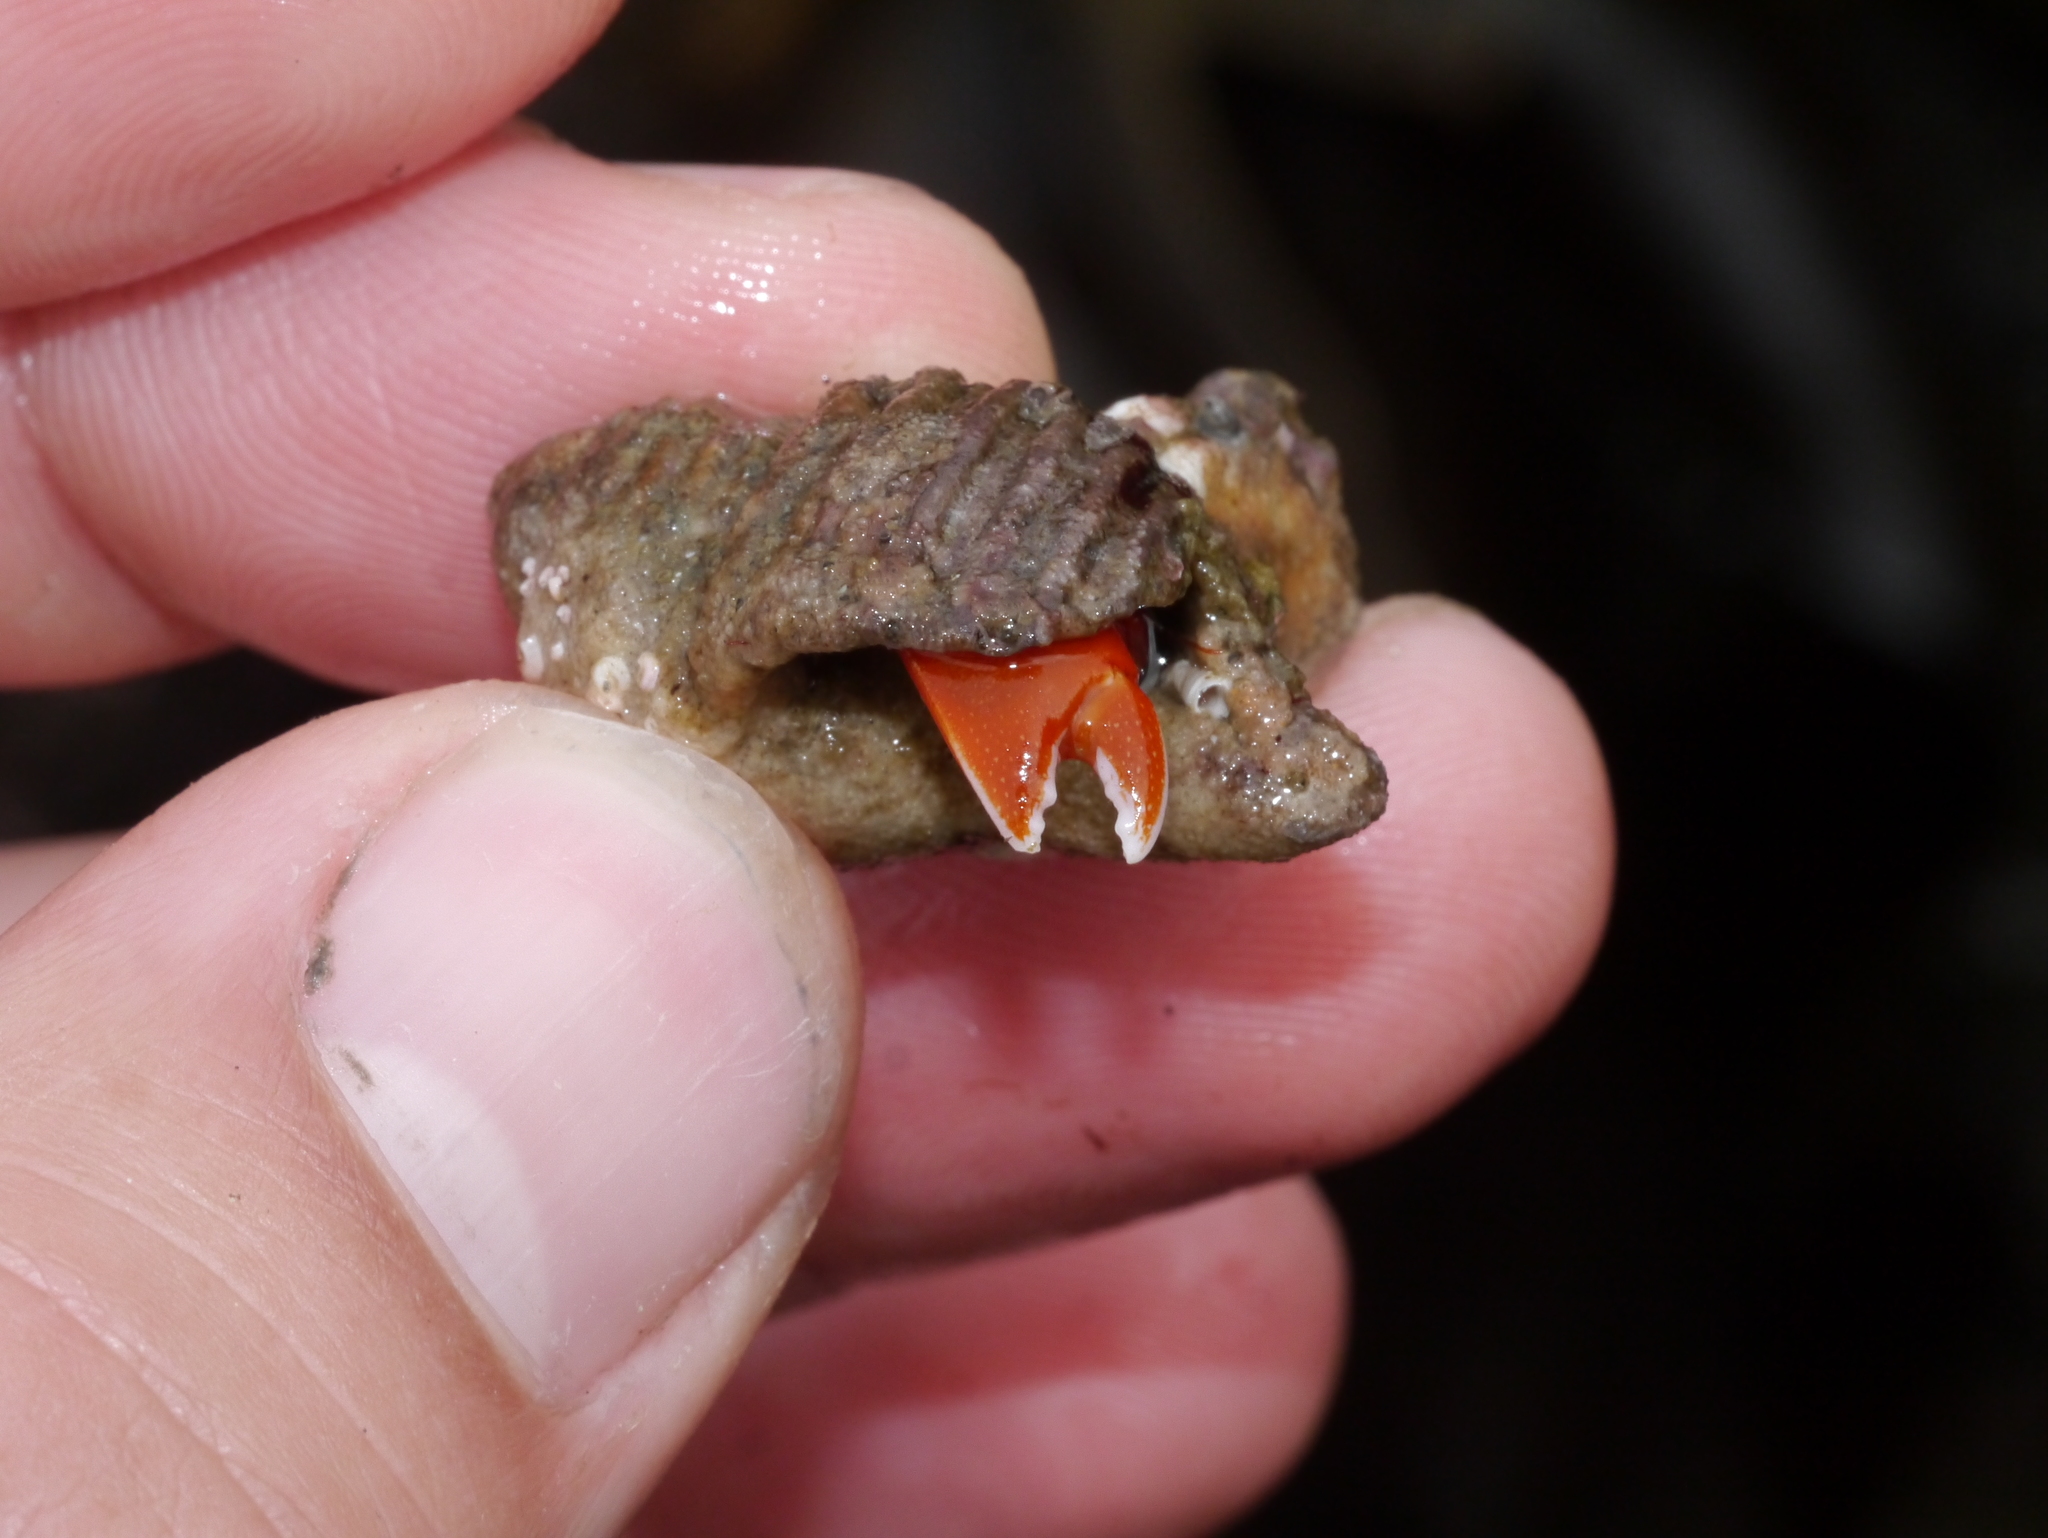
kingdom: Animalia
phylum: Arthropoda
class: Malacostraca
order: Decapoda
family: Paguridae
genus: Elassochirus
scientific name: Elassochirus gilli
